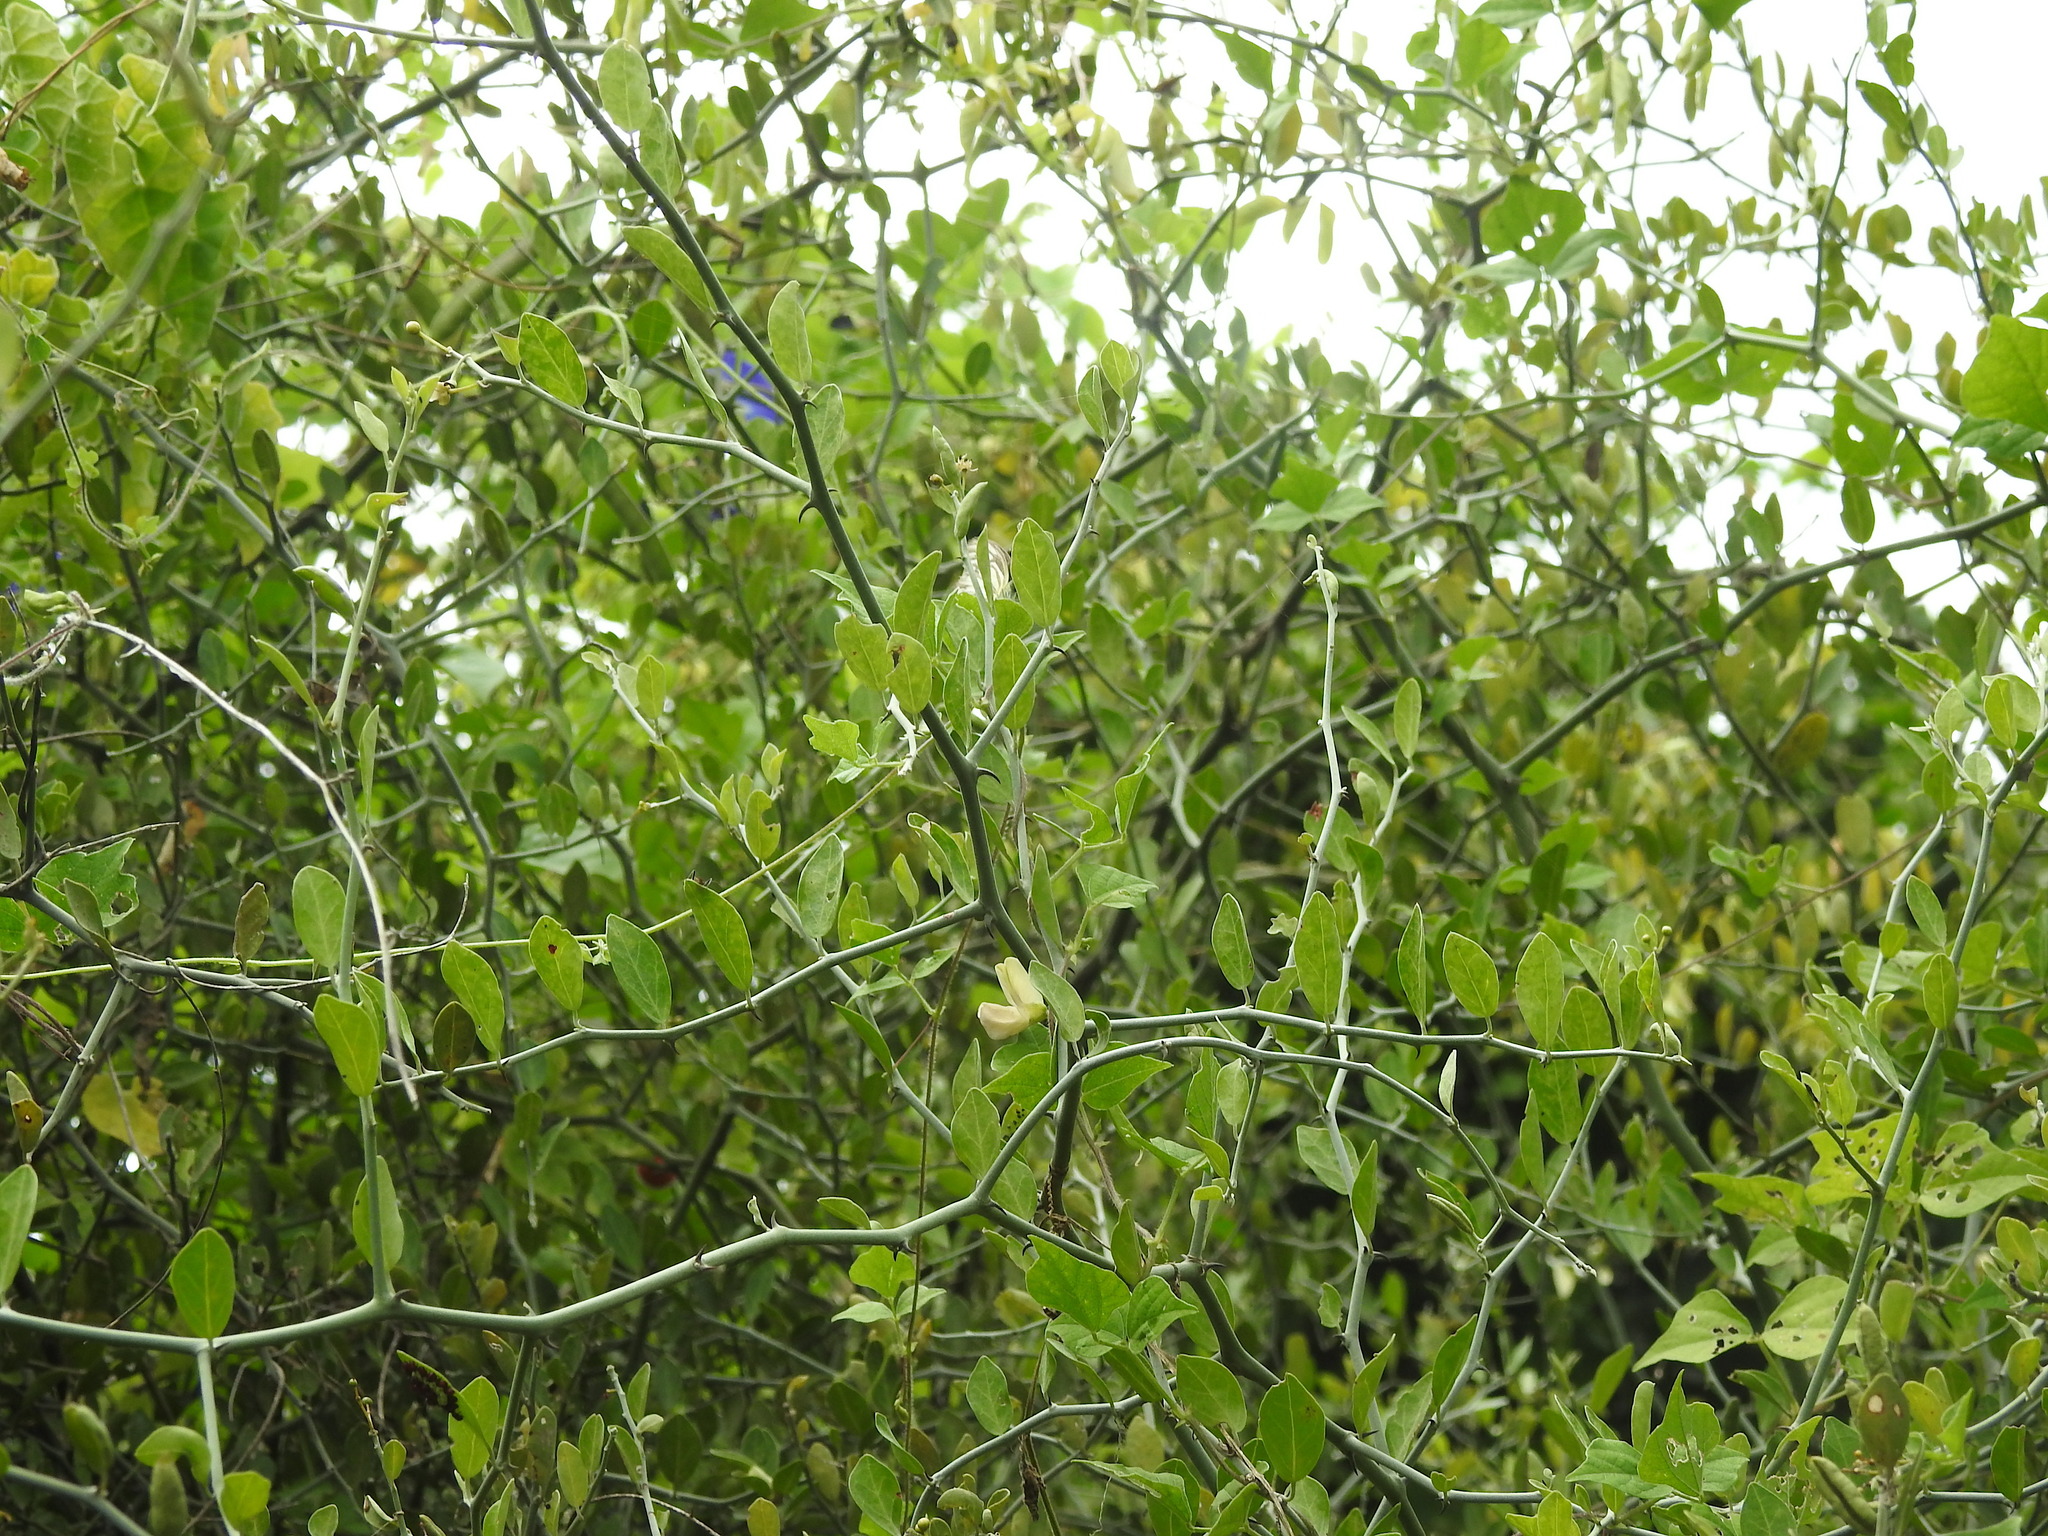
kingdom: Animalia
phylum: Arthropoda
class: Insecta
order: Lepidoptera
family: Pieridae
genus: Cepora
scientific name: Cepora nerissa
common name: Common gull
